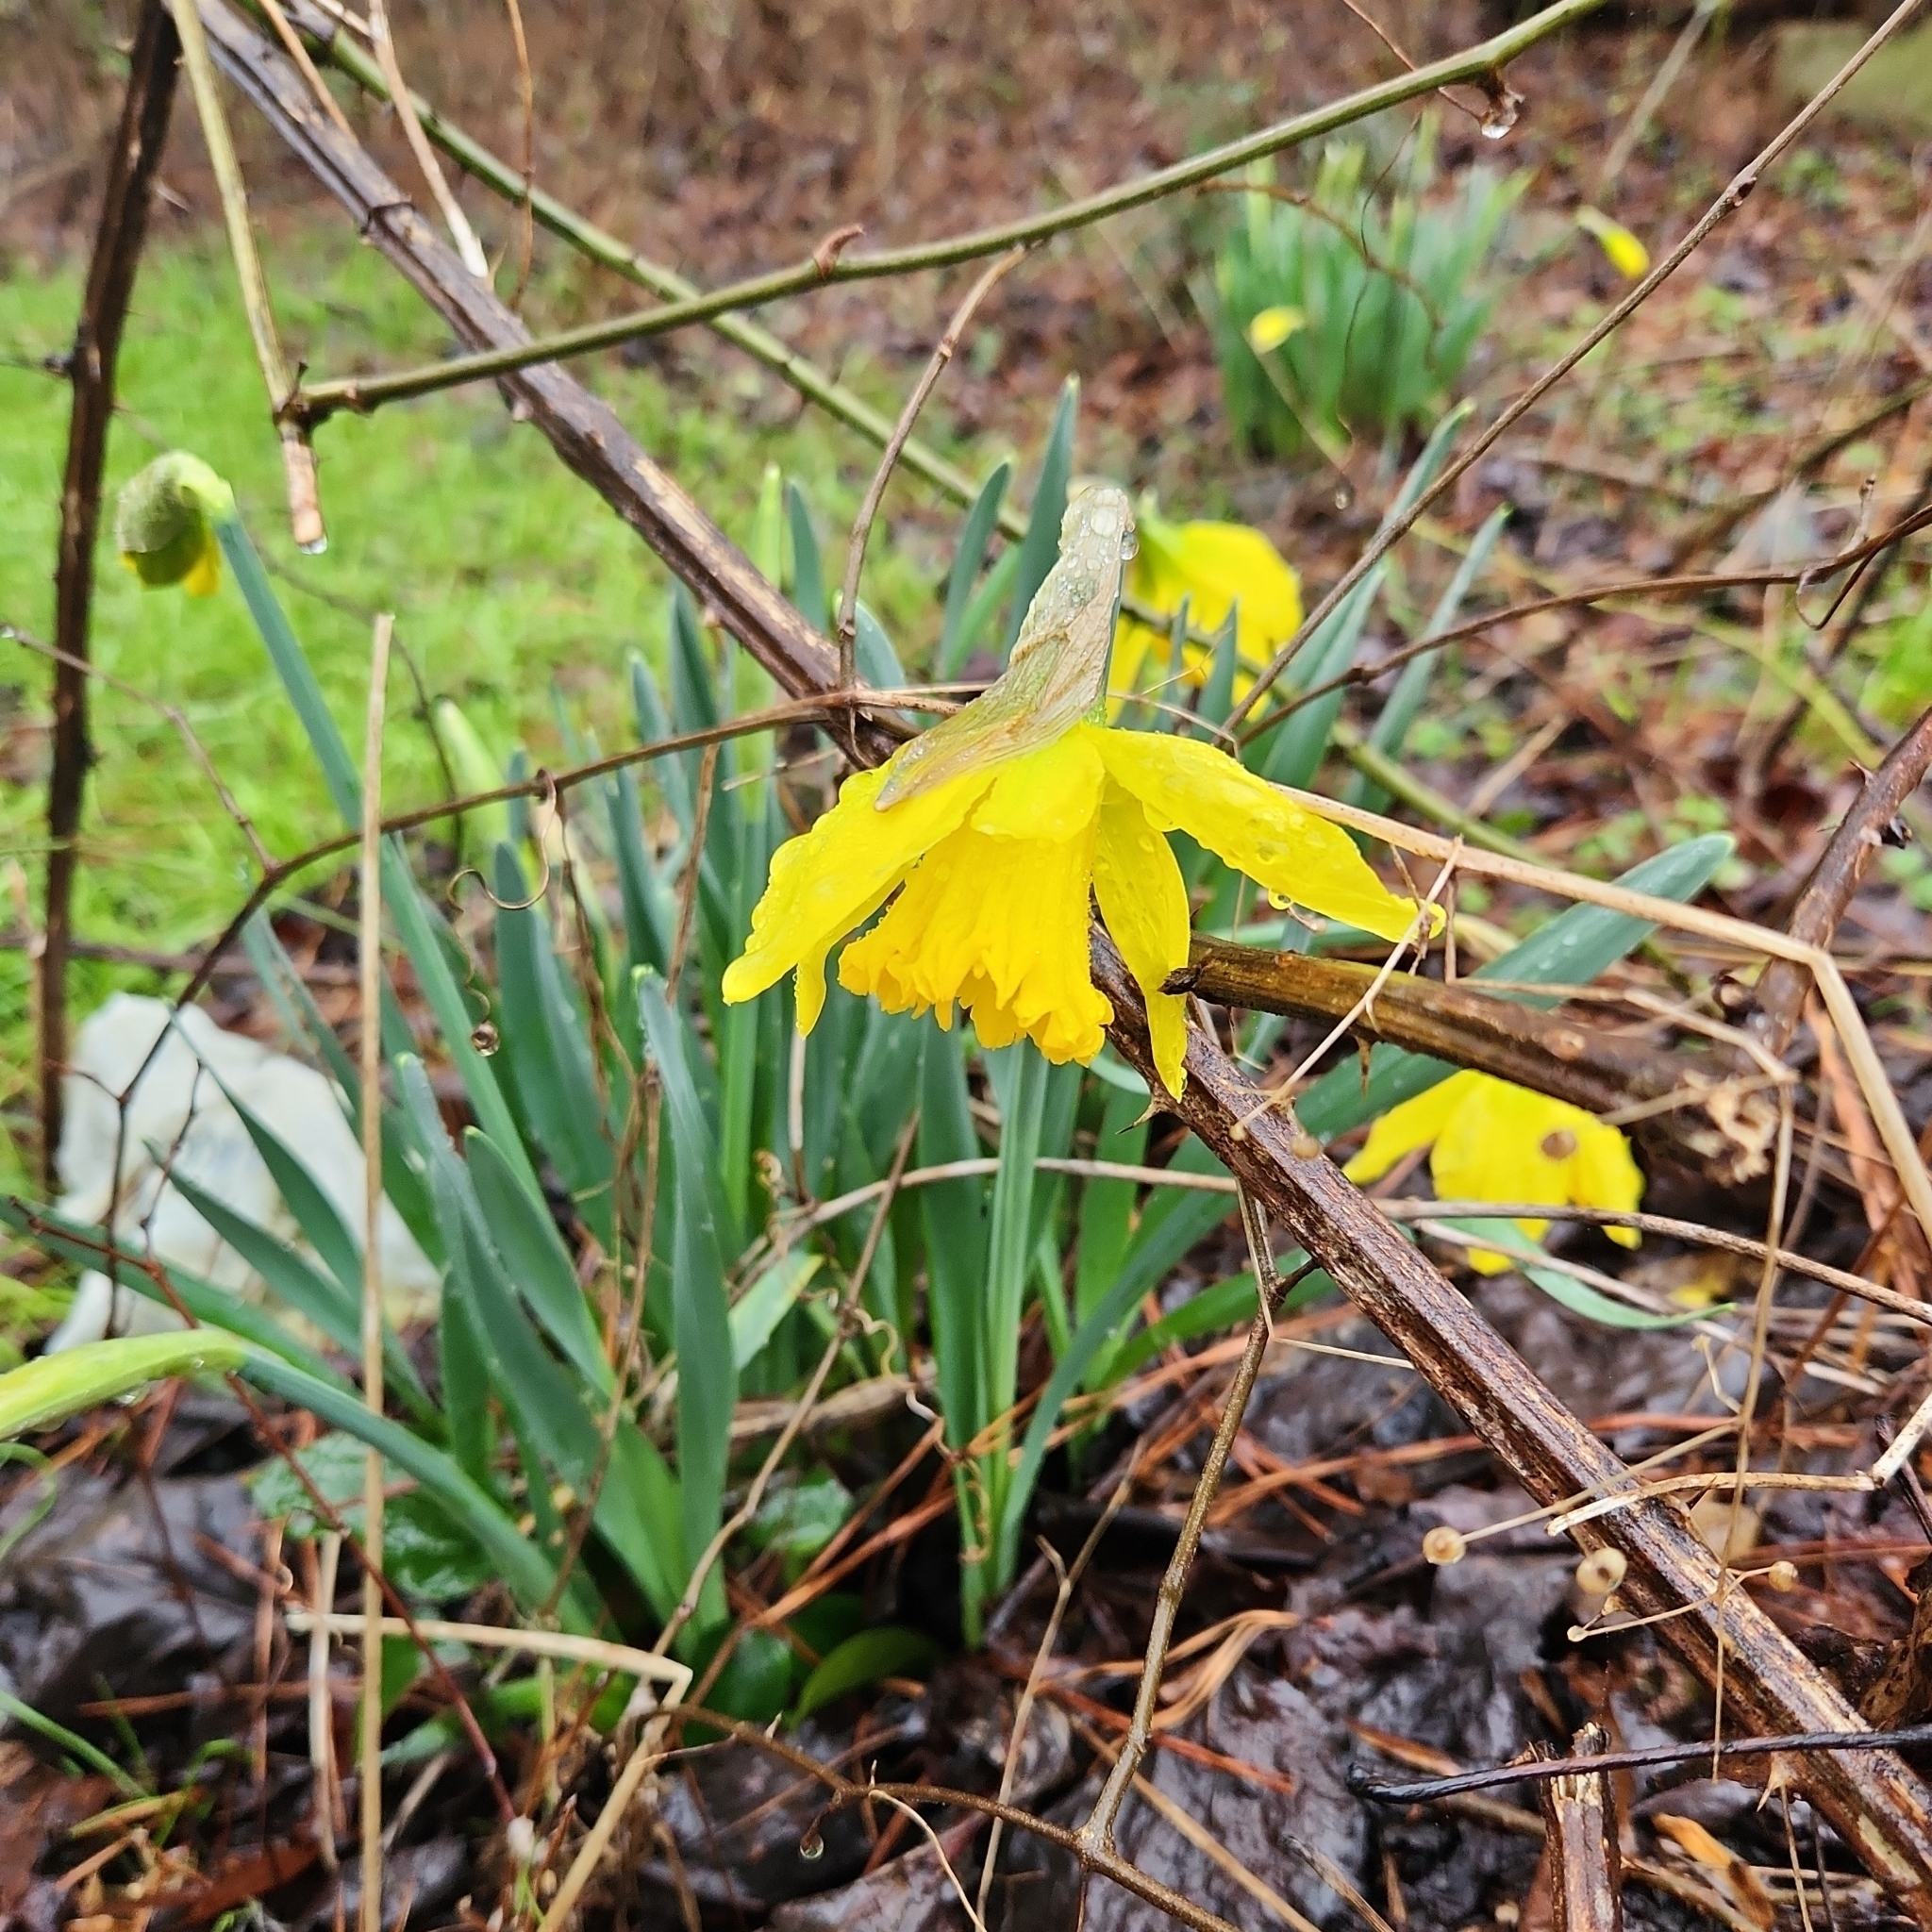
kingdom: Plantae
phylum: Tracheophyta
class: Liliopsida
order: Asparagales
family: Amaryllidaceae
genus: Narcissus
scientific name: Narcissus pseudonarcissus
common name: Daffodil
